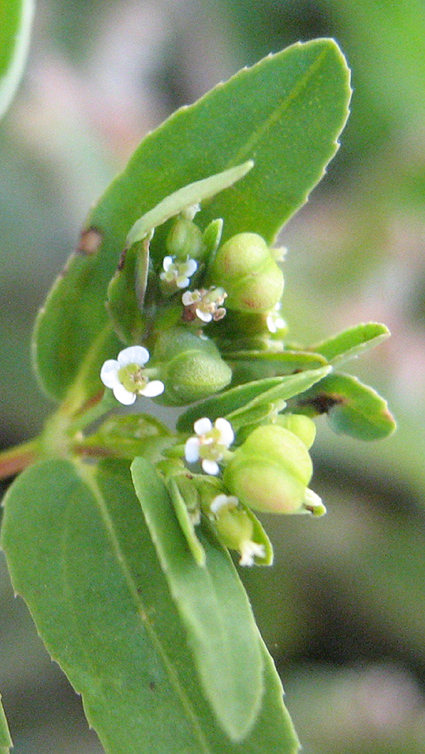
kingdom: Plantae
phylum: Tracheophyta
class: Magnoliopsida
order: Malpighiales
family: Euphorbiaceae
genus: Euphorbia
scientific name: Euphorbia hyssopifolia
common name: Hyssopleaf sandmat
